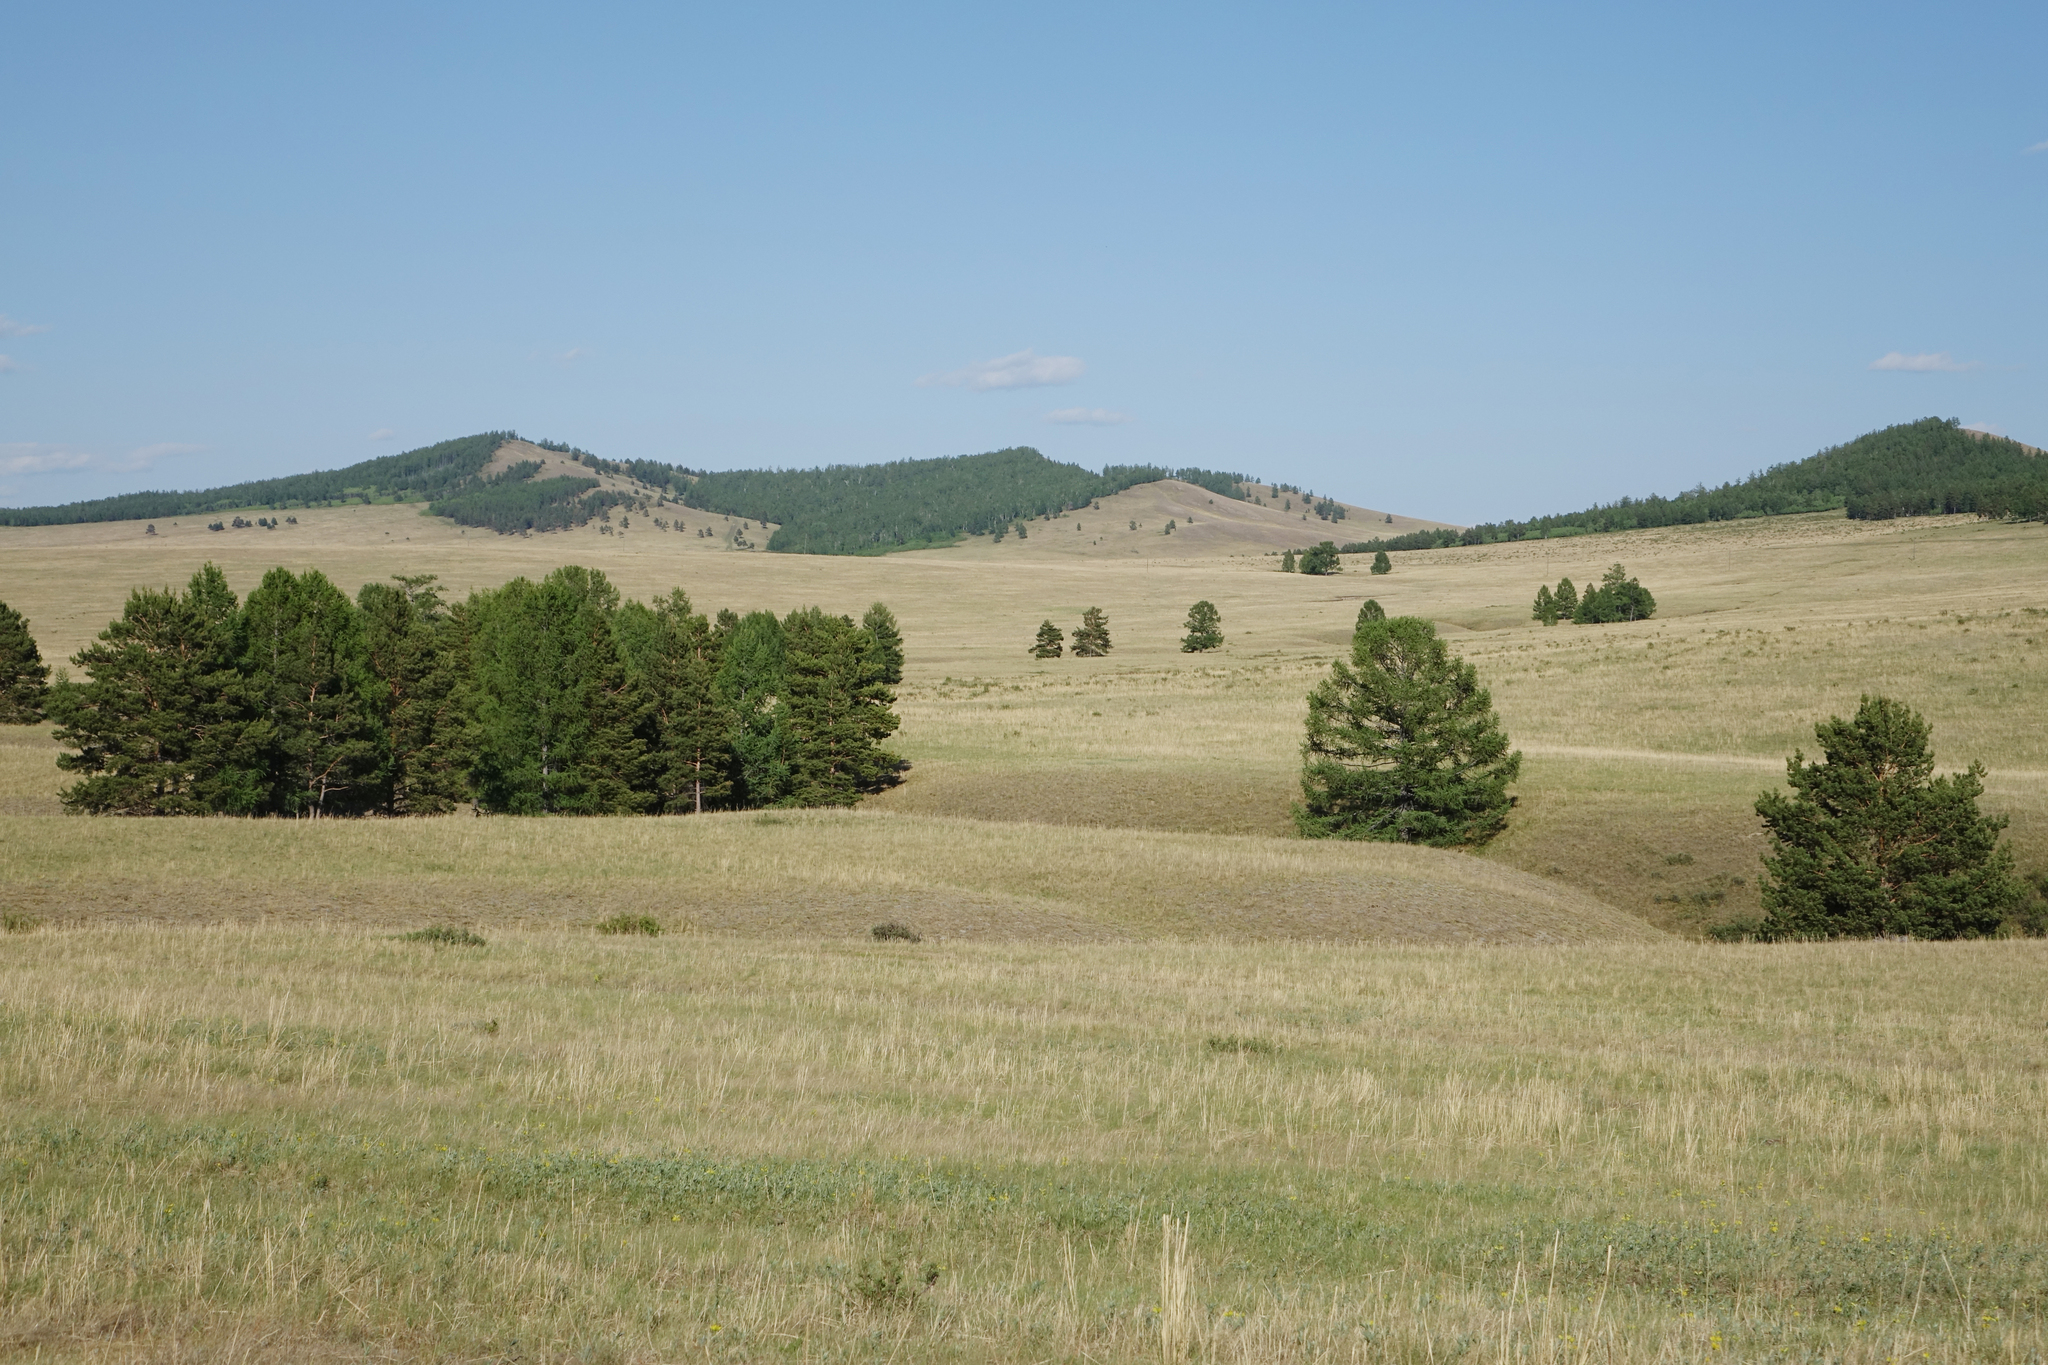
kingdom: Plantae
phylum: Tracheophyta
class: Pinopsida
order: Pinales
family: Pinaceae
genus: Larix
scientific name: Larix sibirica
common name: Siberian larch
